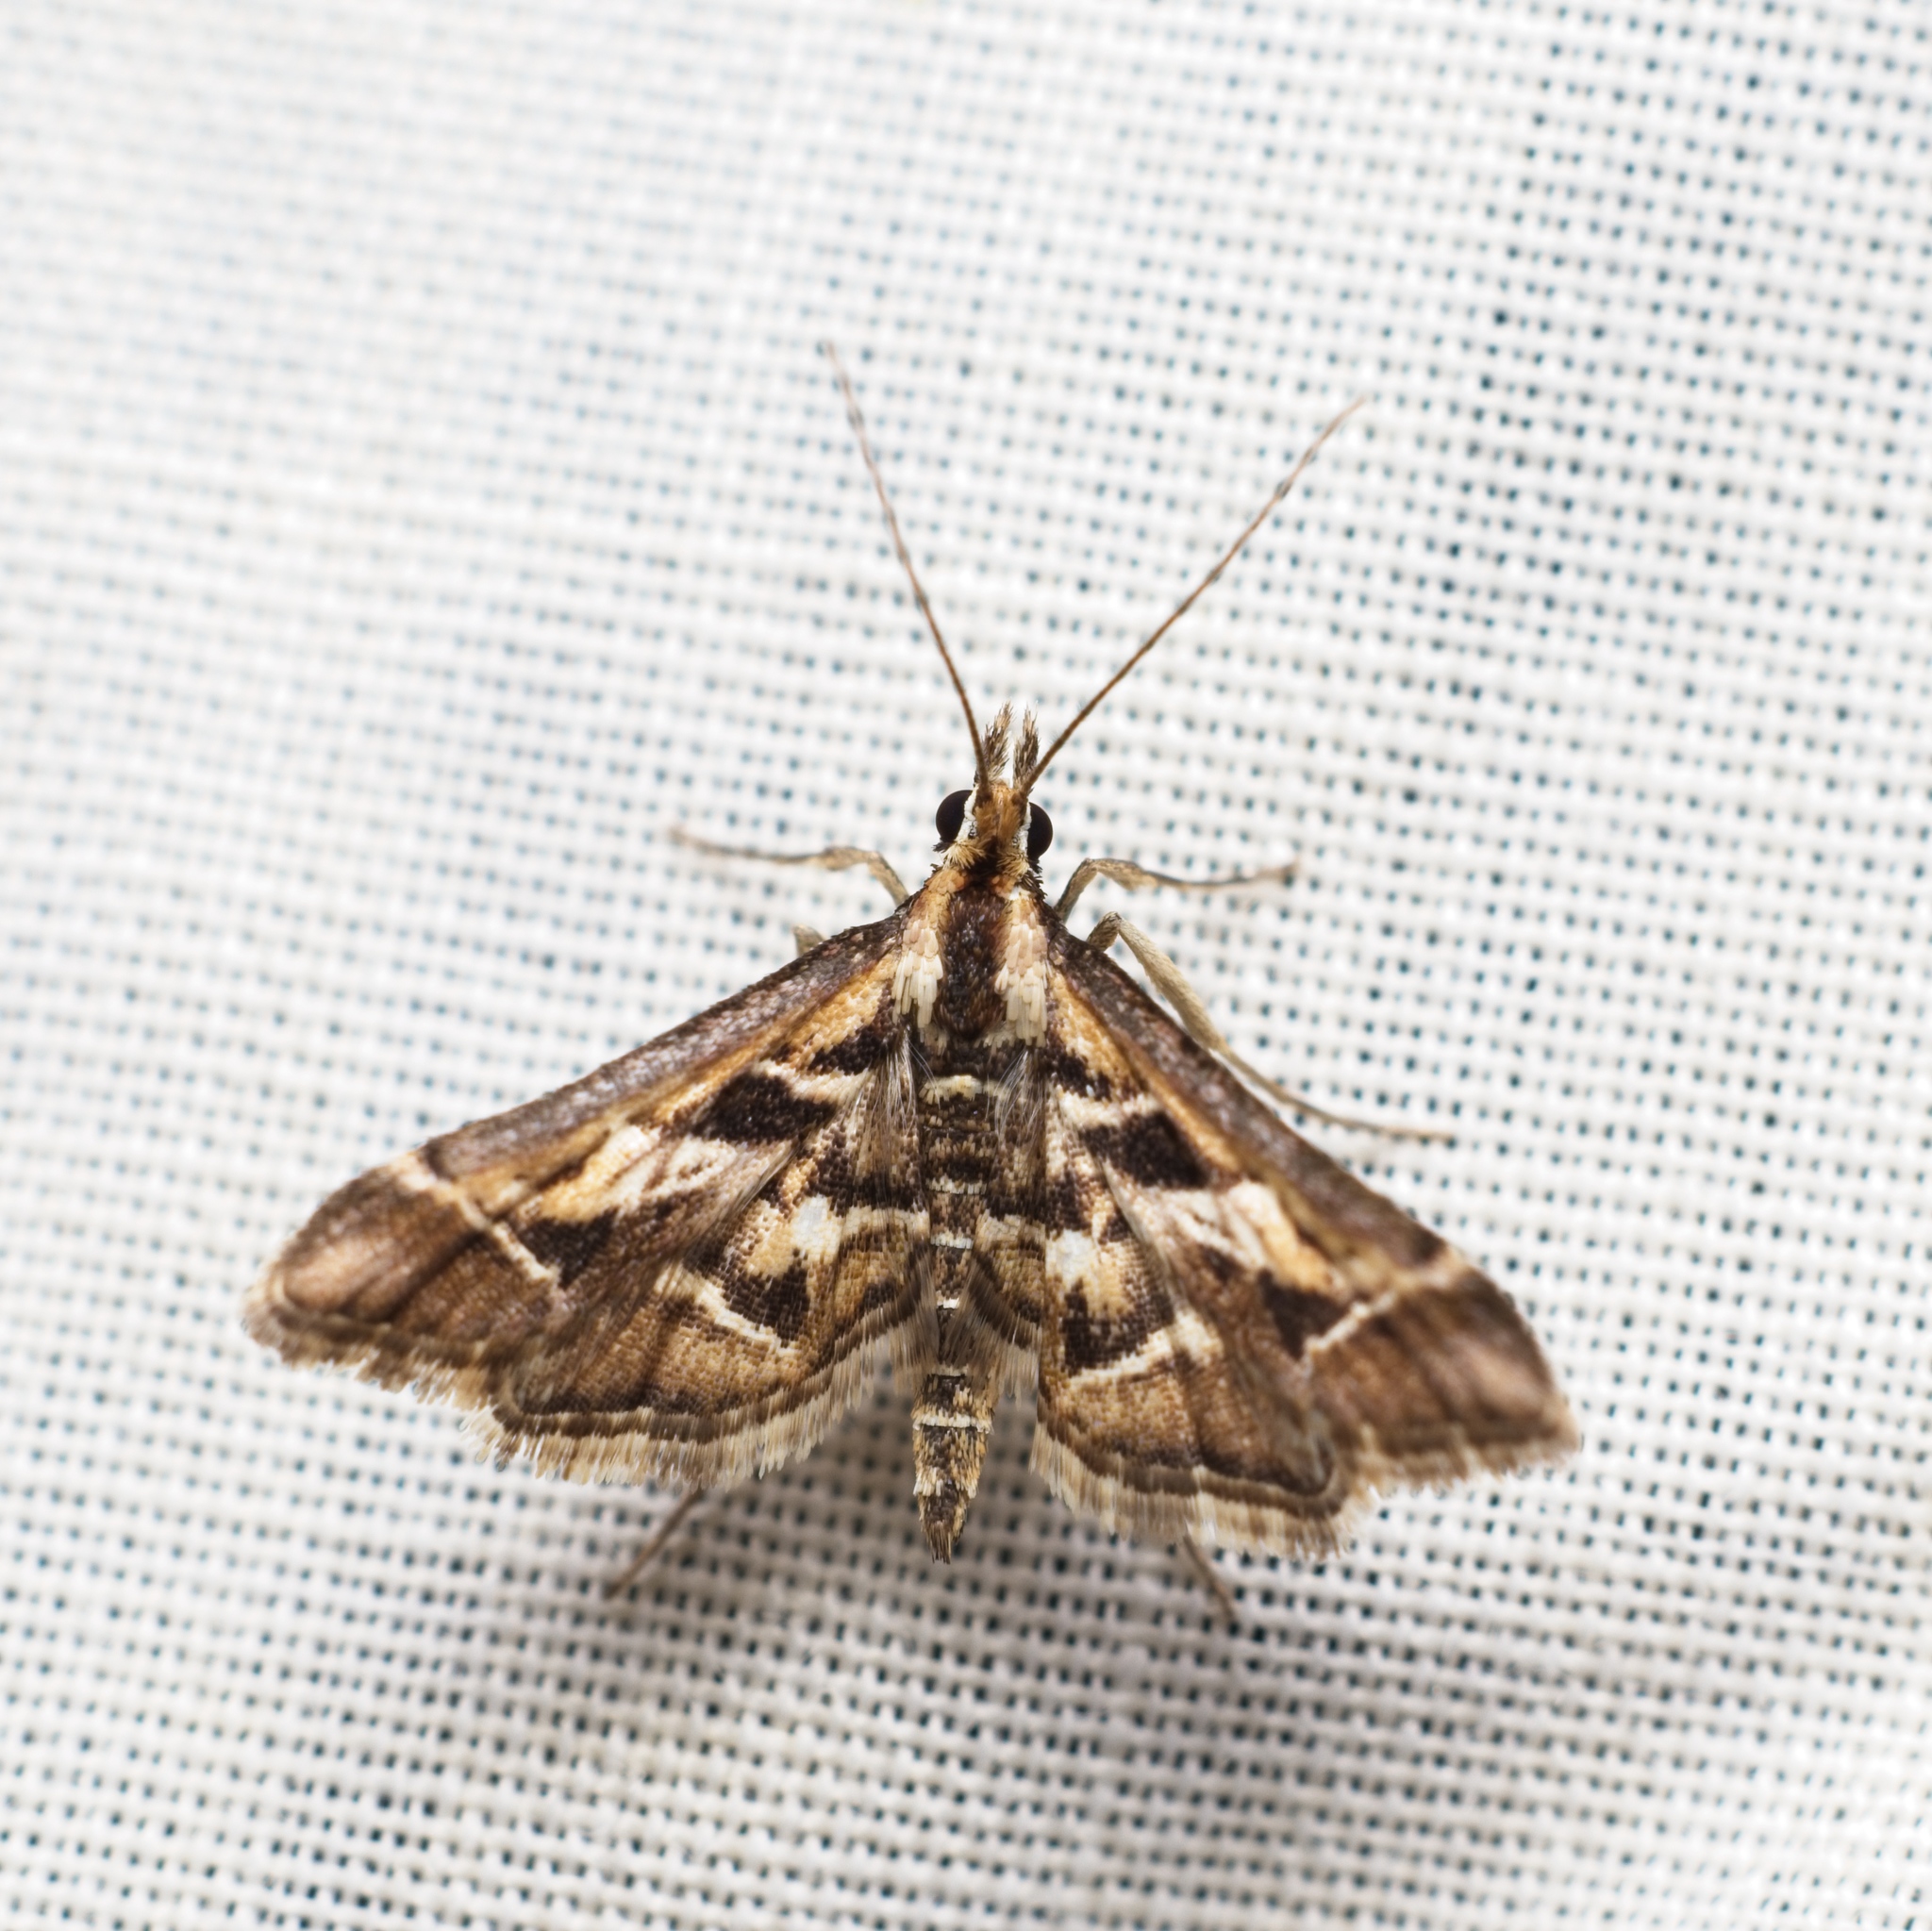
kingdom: Animalia
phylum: Arthropoda
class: Insecta
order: Lepidoptera
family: Crambidae
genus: Diasemia
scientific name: Diasemia grammalis
